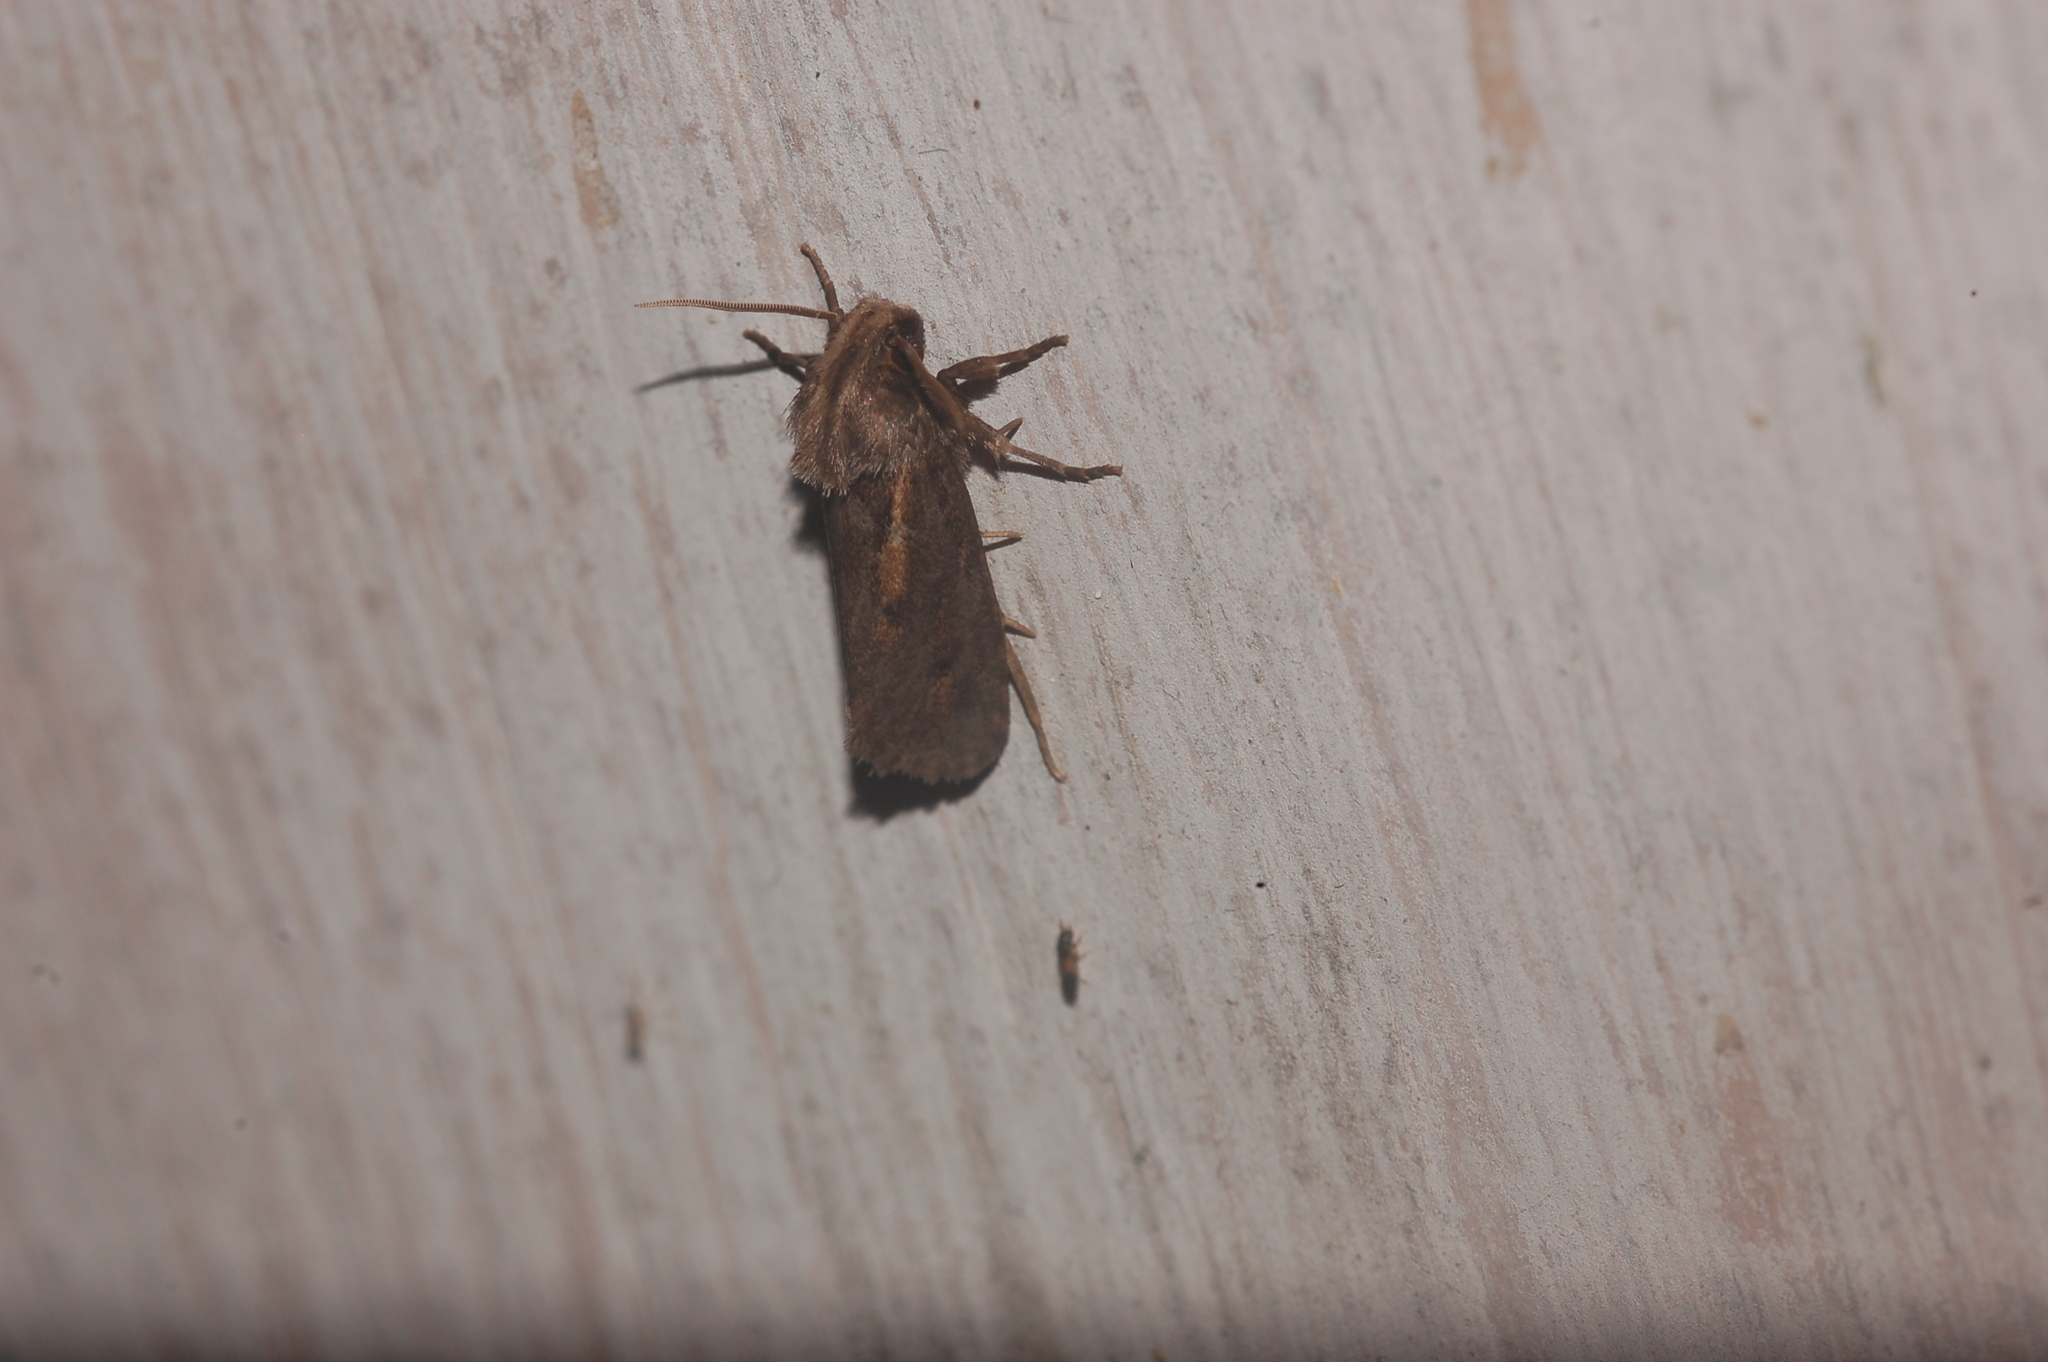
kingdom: Animalia
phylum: Arthropoda
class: Insecta
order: Lepidoptera
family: Tineidae
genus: Acrolophus
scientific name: Acrolophus popeanella
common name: Clemens' grass tubeworm moth
